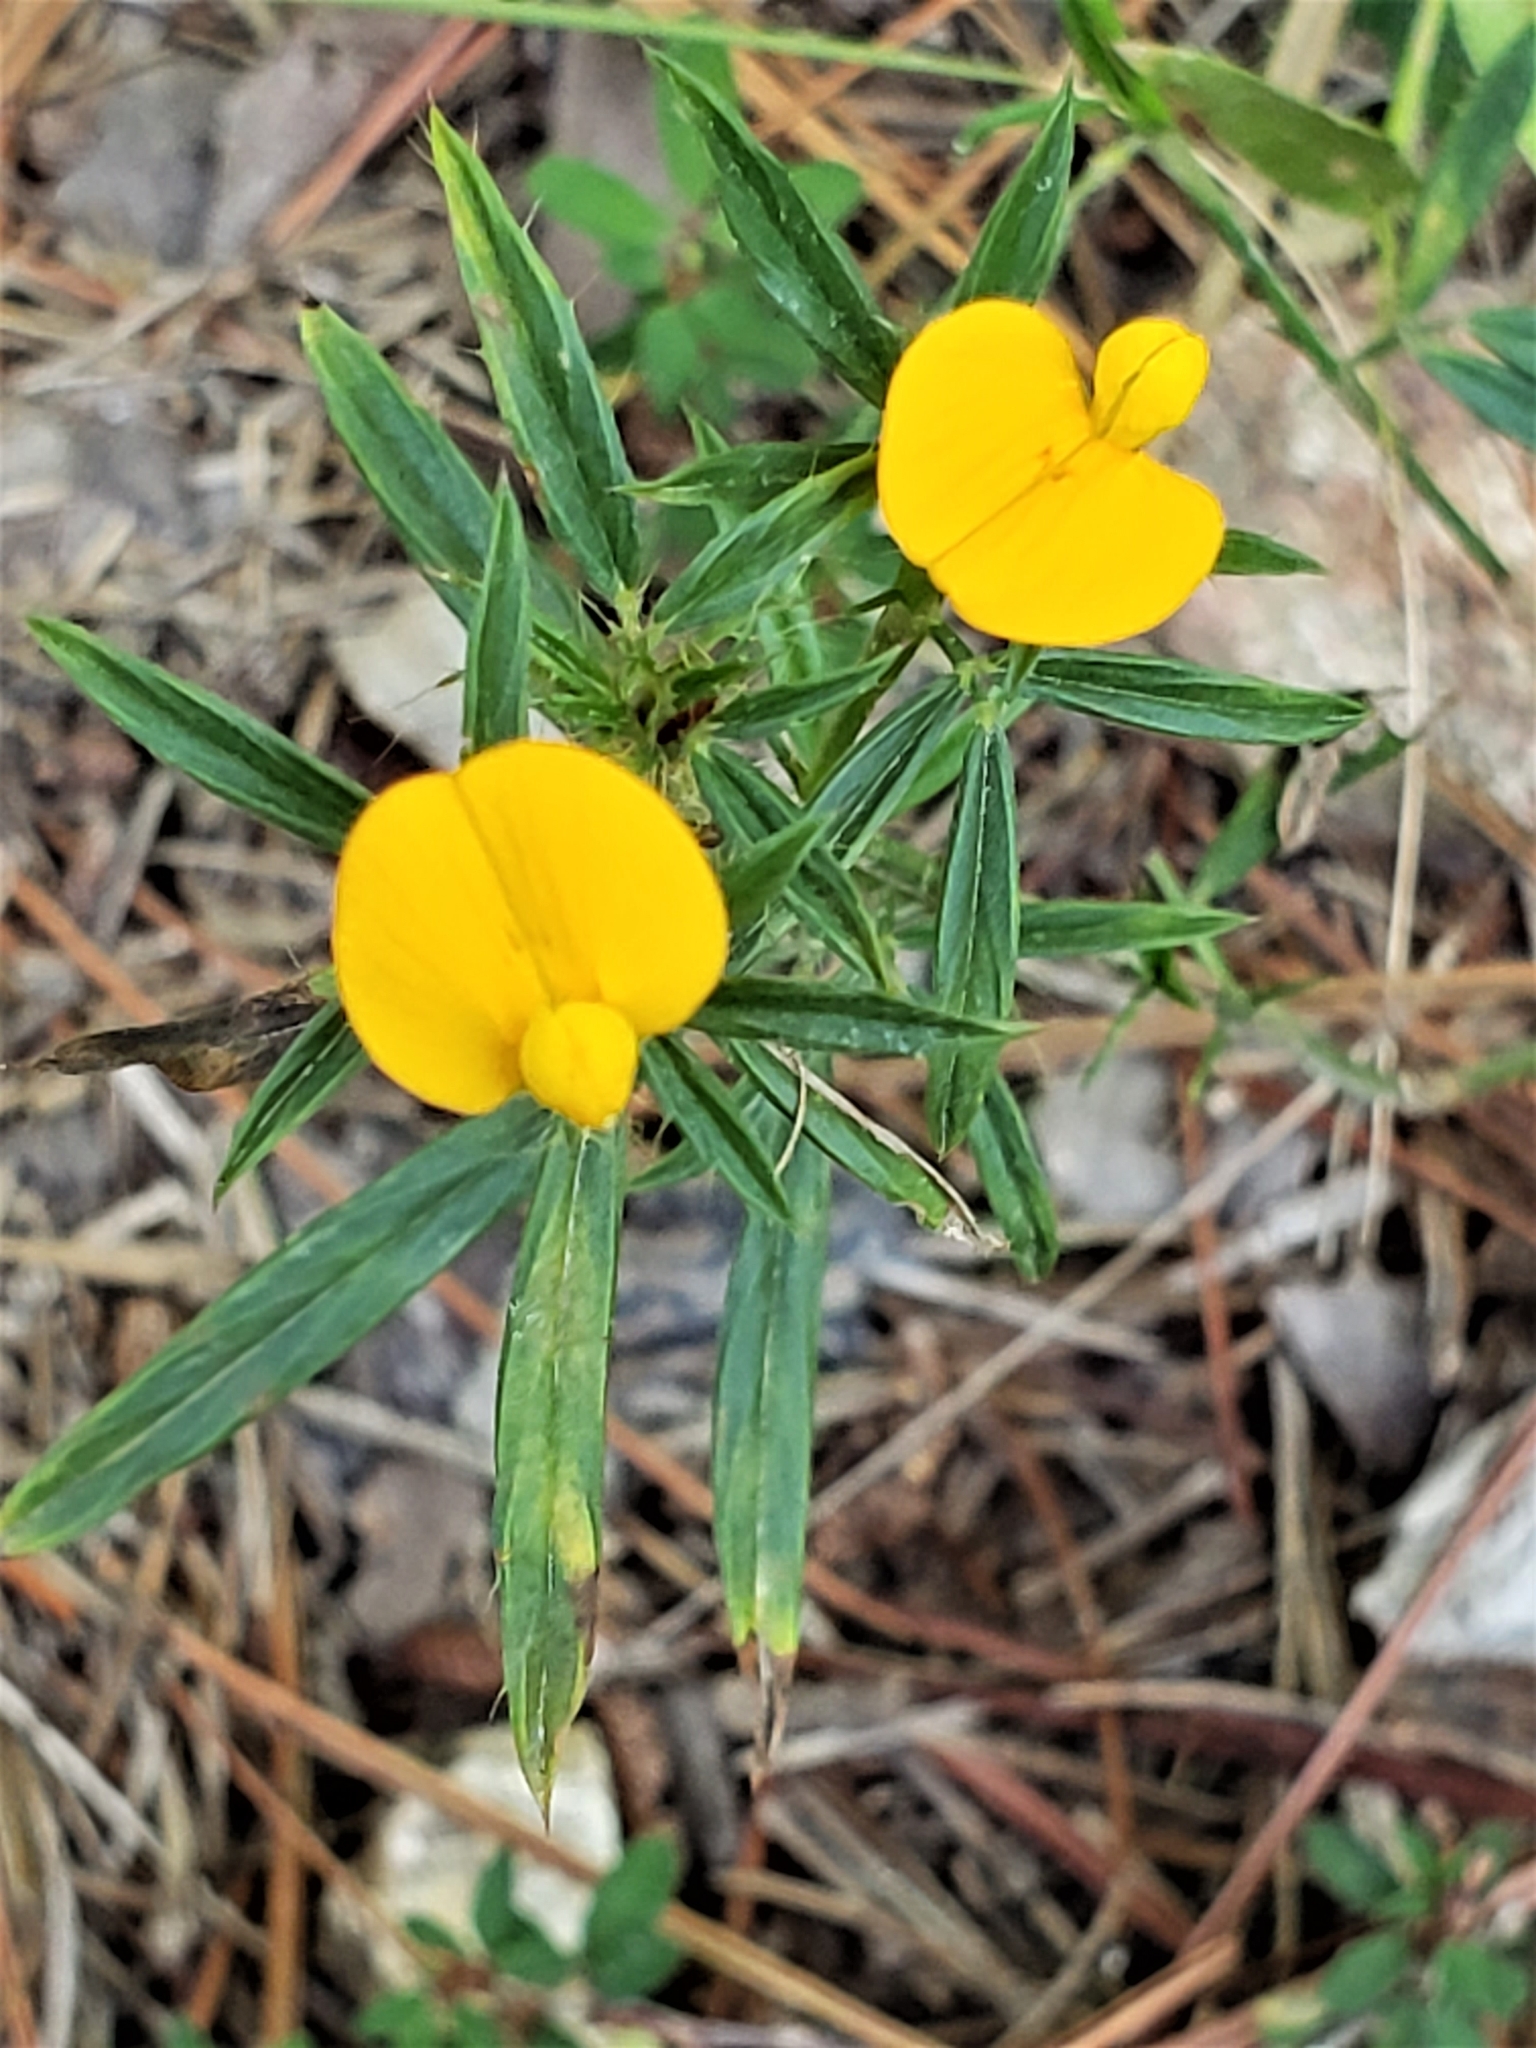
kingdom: Plantae
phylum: Tracheophyta
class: Magnoliopsida
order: Fabales
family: Fabaceae
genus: Stylosanthes
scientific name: Stylosanthes biflora
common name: Two-flower pencil-flower
